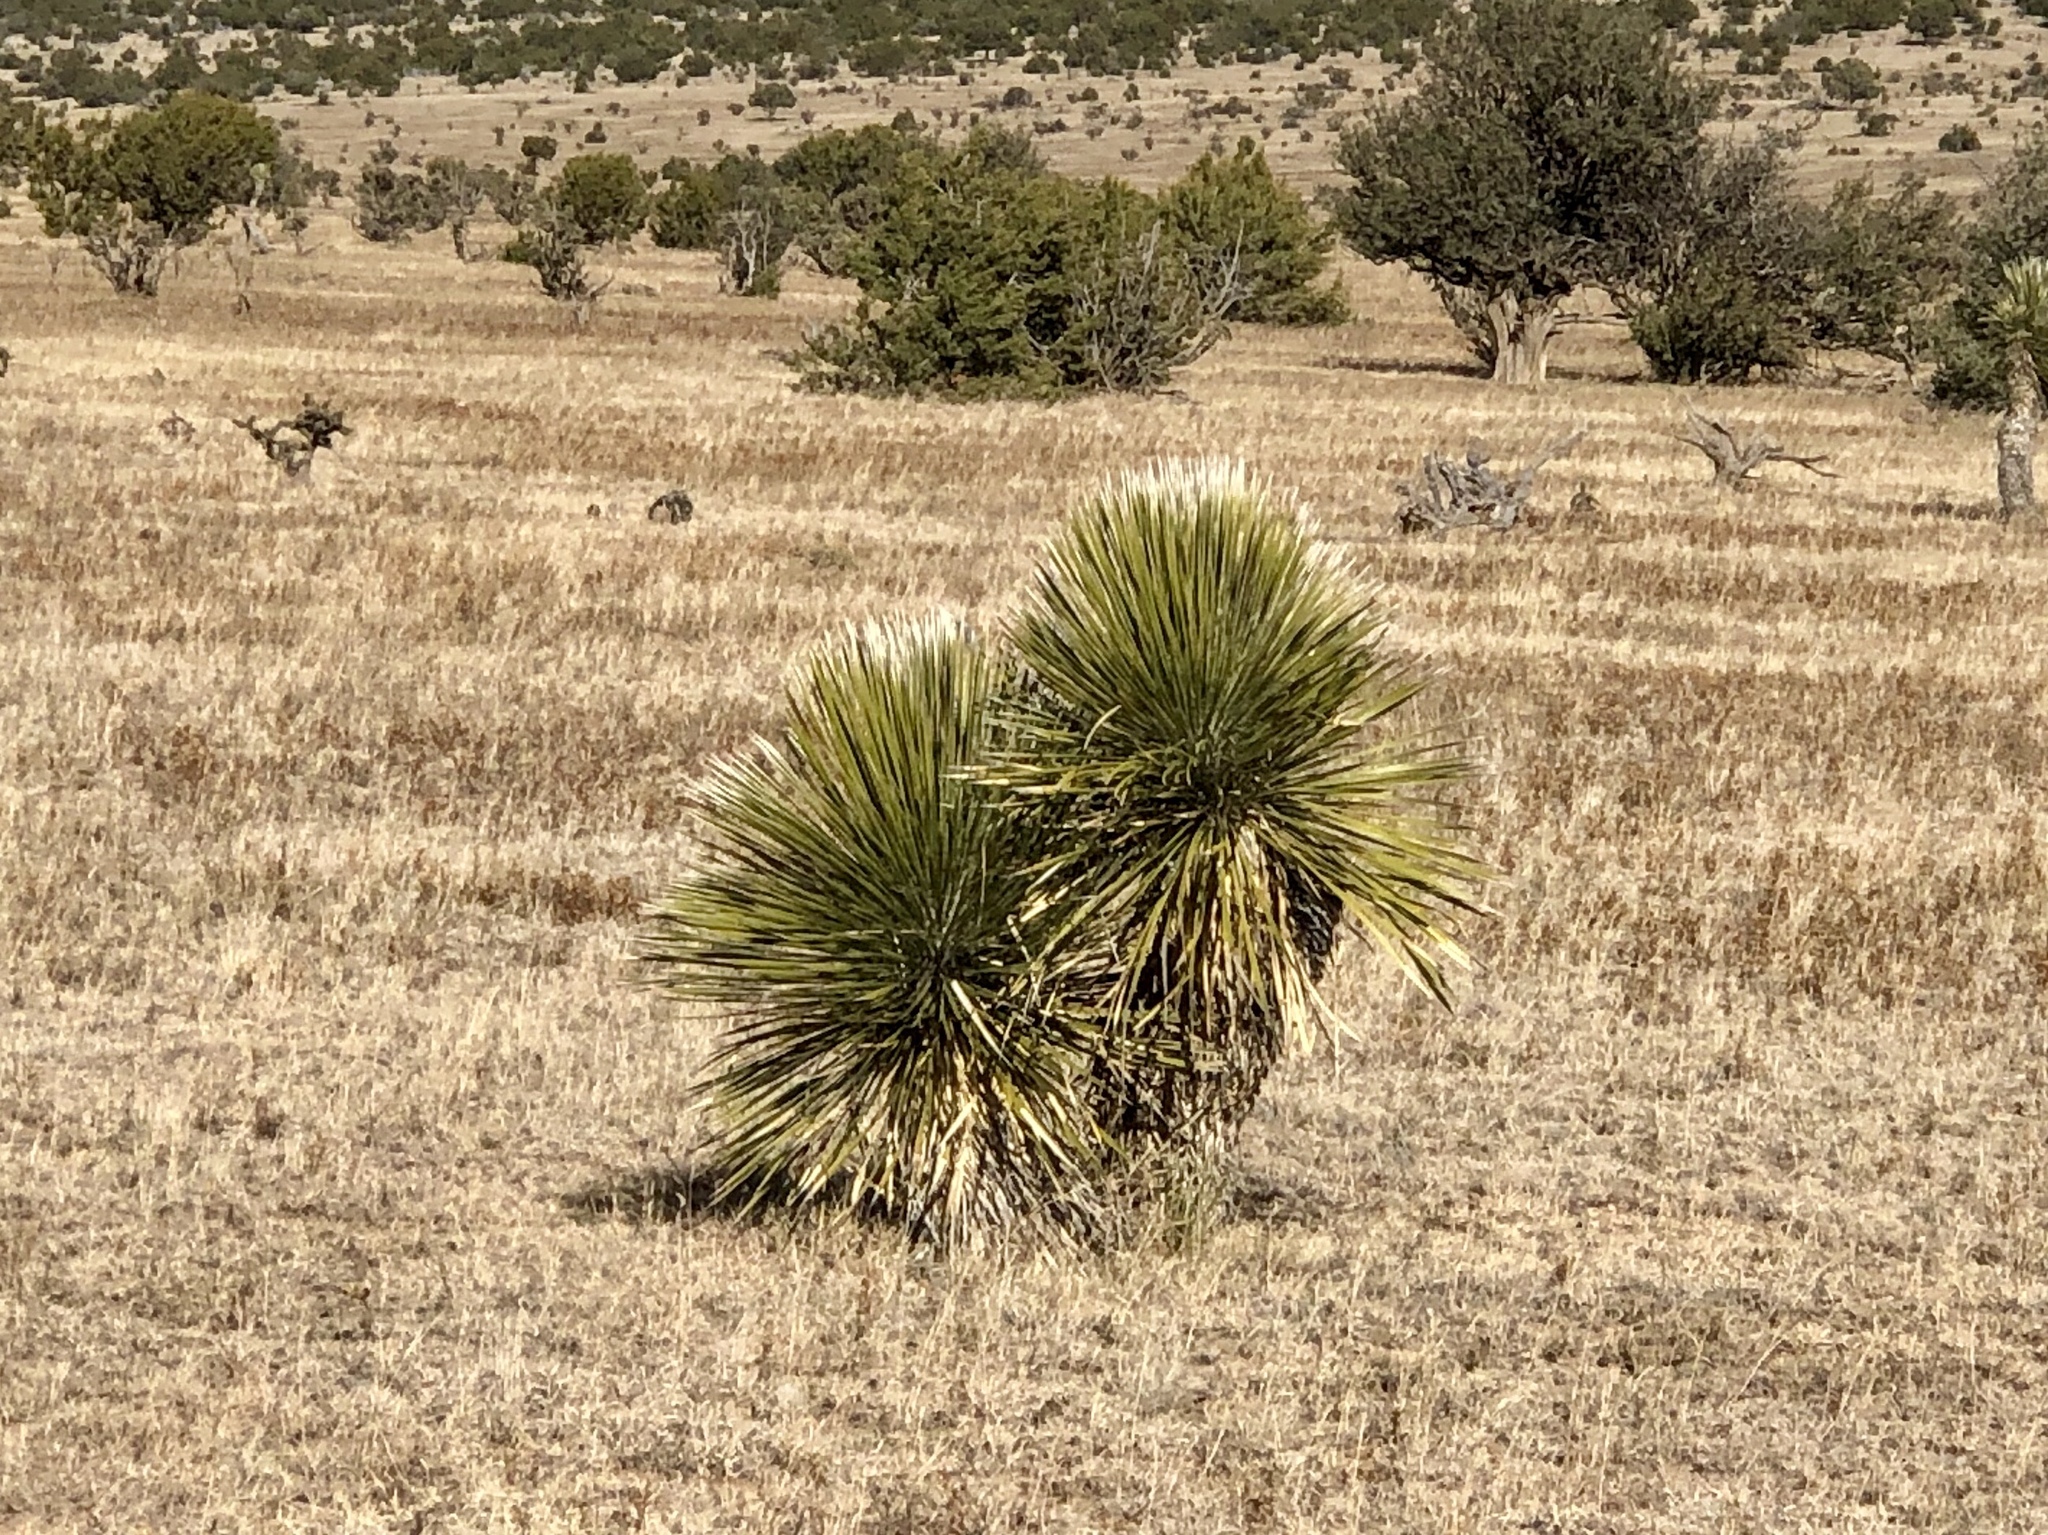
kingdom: Plantae
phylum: Tracheophyta
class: Liliopsida
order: Asparagales
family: Asparagaceae
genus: Yucca
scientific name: Yucca elata
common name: Palmella
